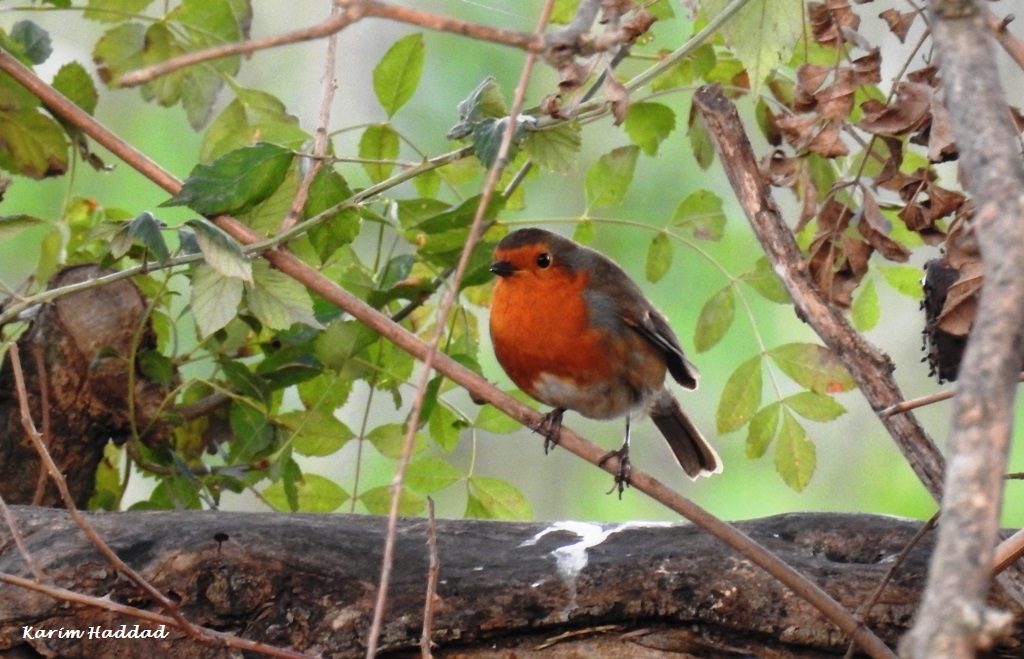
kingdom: Animalia
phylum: Chordata
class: Aves
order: Passeriformes
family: Muscicapidae
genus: Erithacus
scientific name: Erithacus rubecula
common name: European robin
